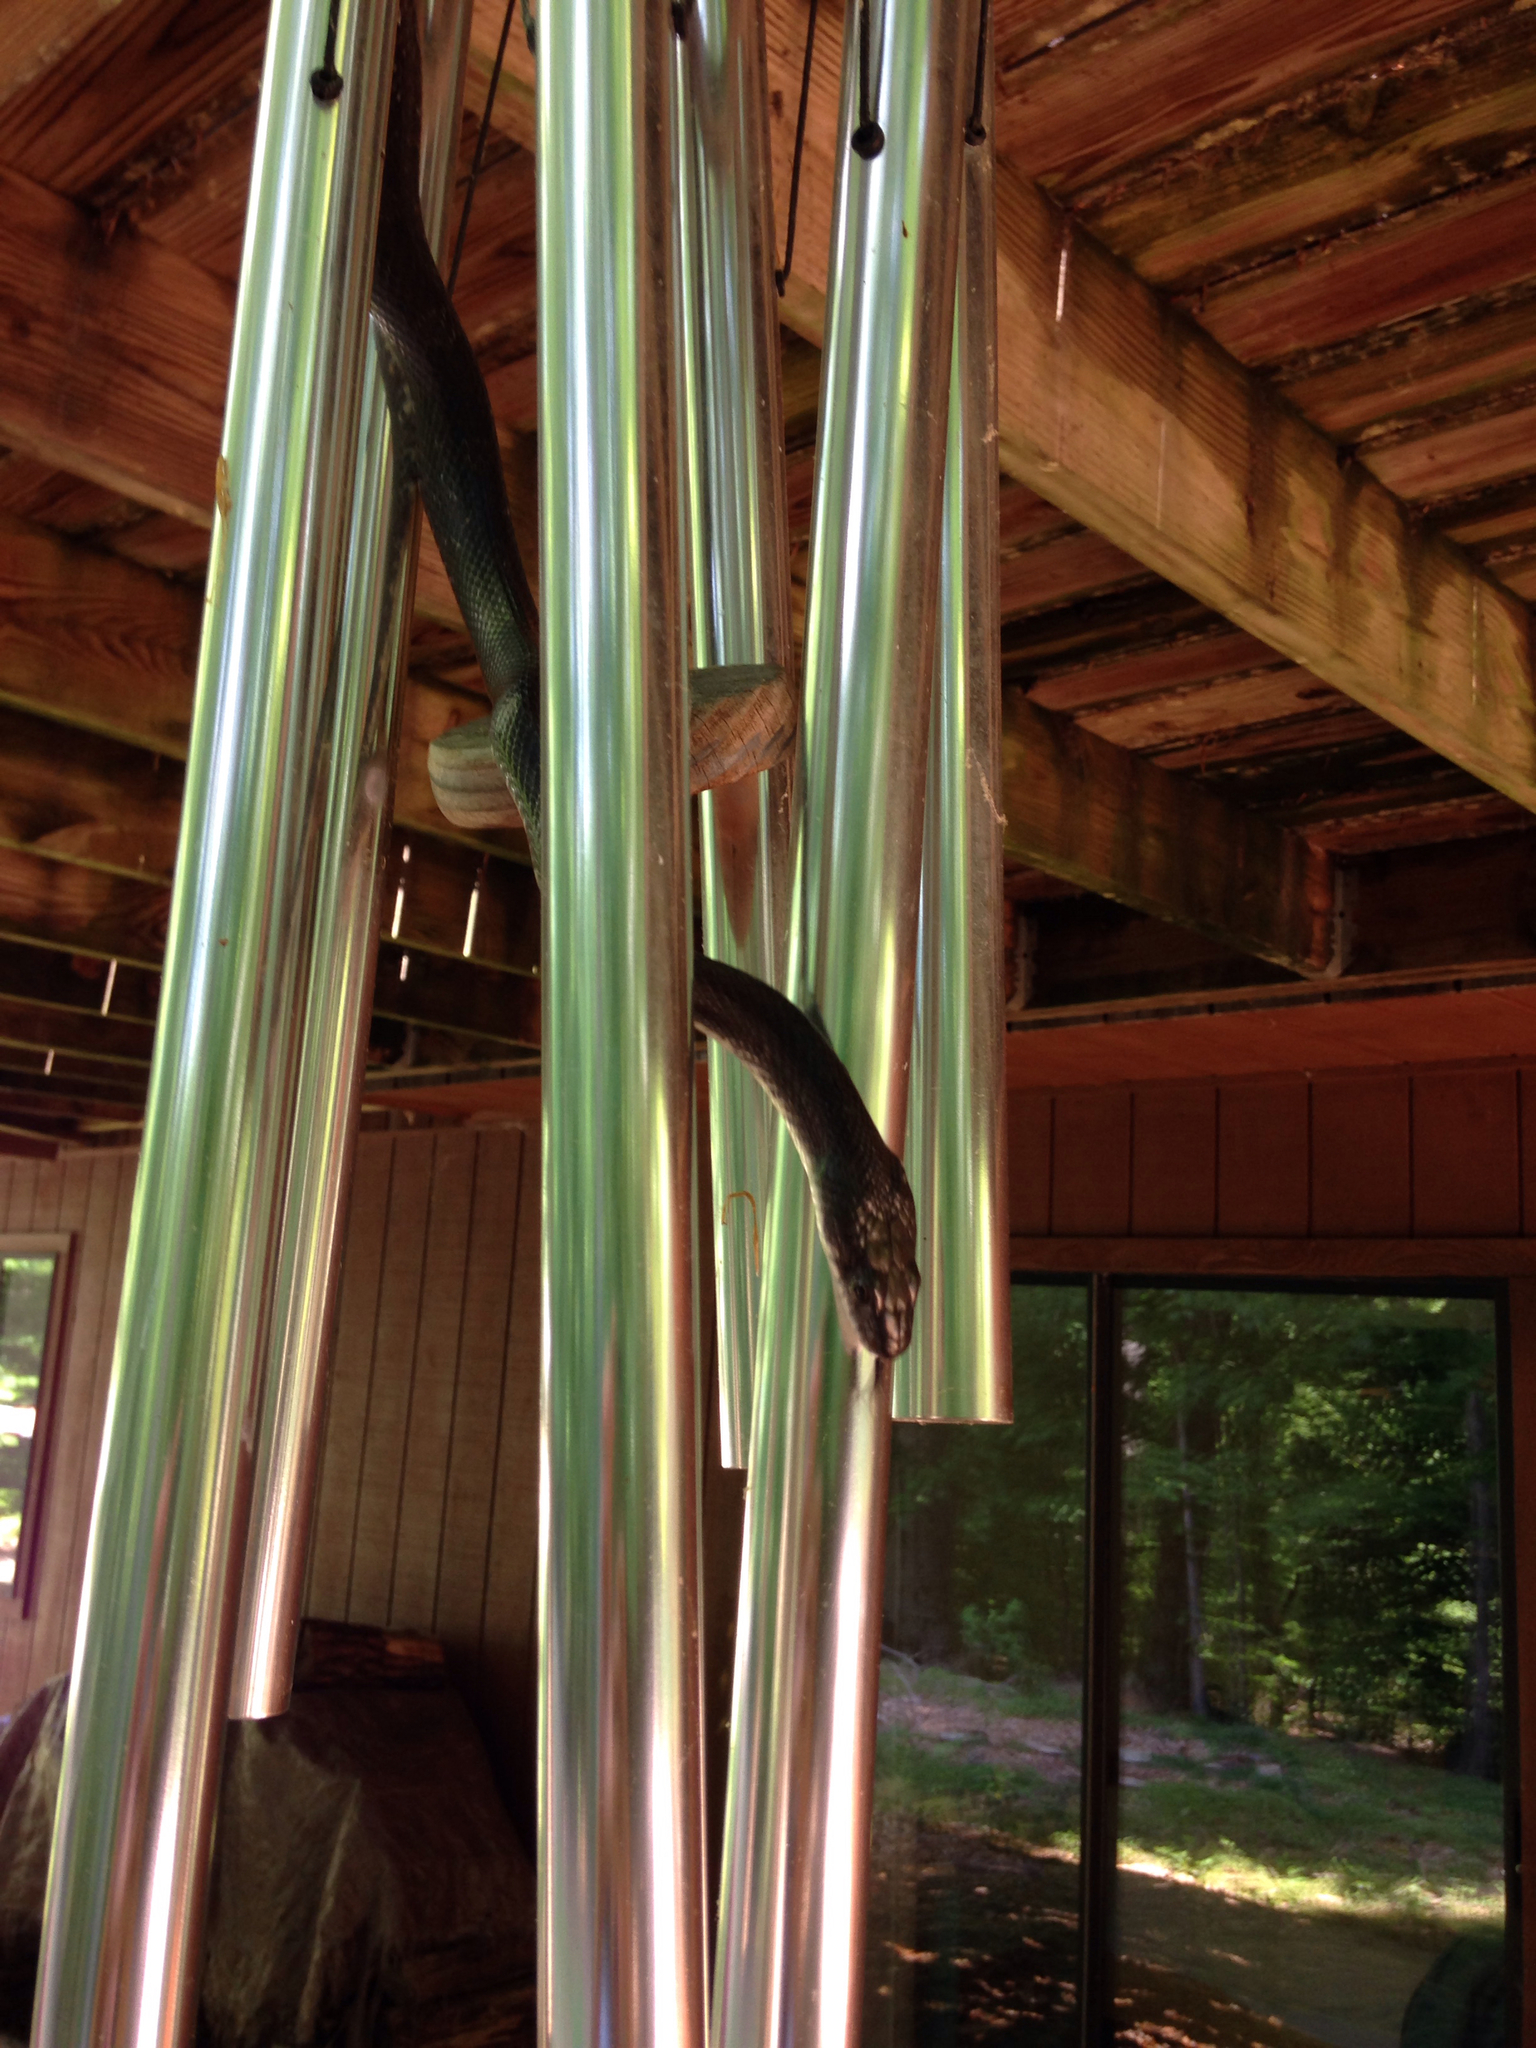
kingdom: Animalia
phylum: Chordata
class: Squamata
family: Colubridae
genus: Pantherophis
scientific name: Pantherophis alleghaniensis
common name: Eastern rat snake
